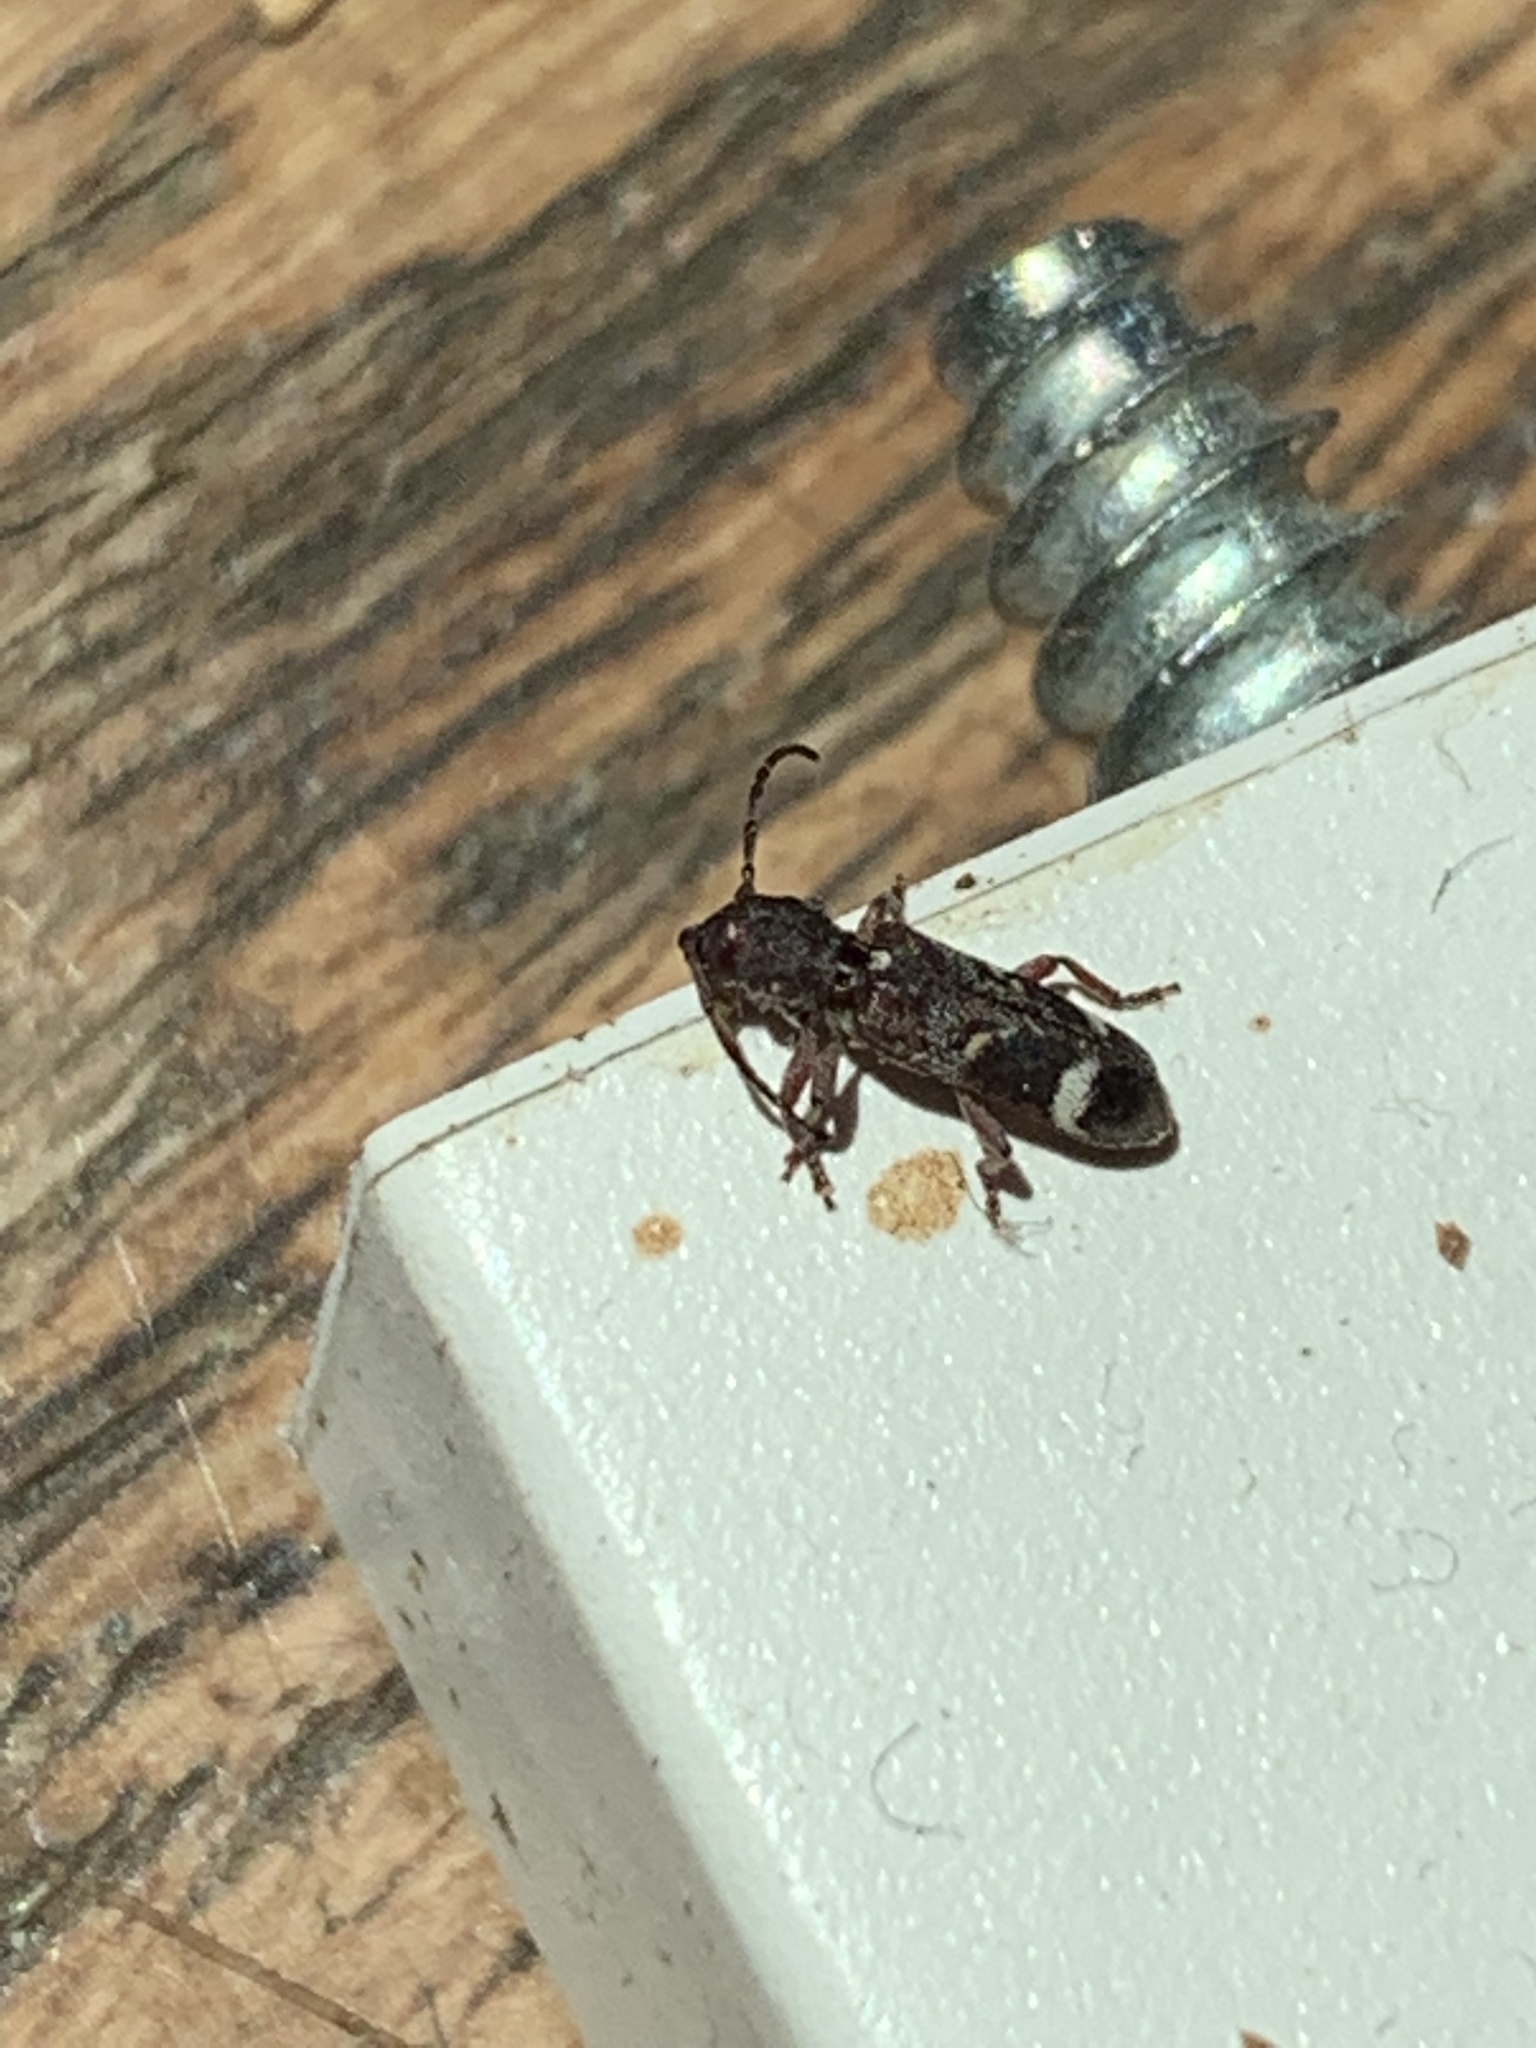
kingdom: Animalia
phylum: Arthropoda
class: Insecta
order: Coleoptera
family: Cerambycidae
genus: Psenocerus
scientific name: Psenocerus supernotatus
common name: Currant-tip borer
